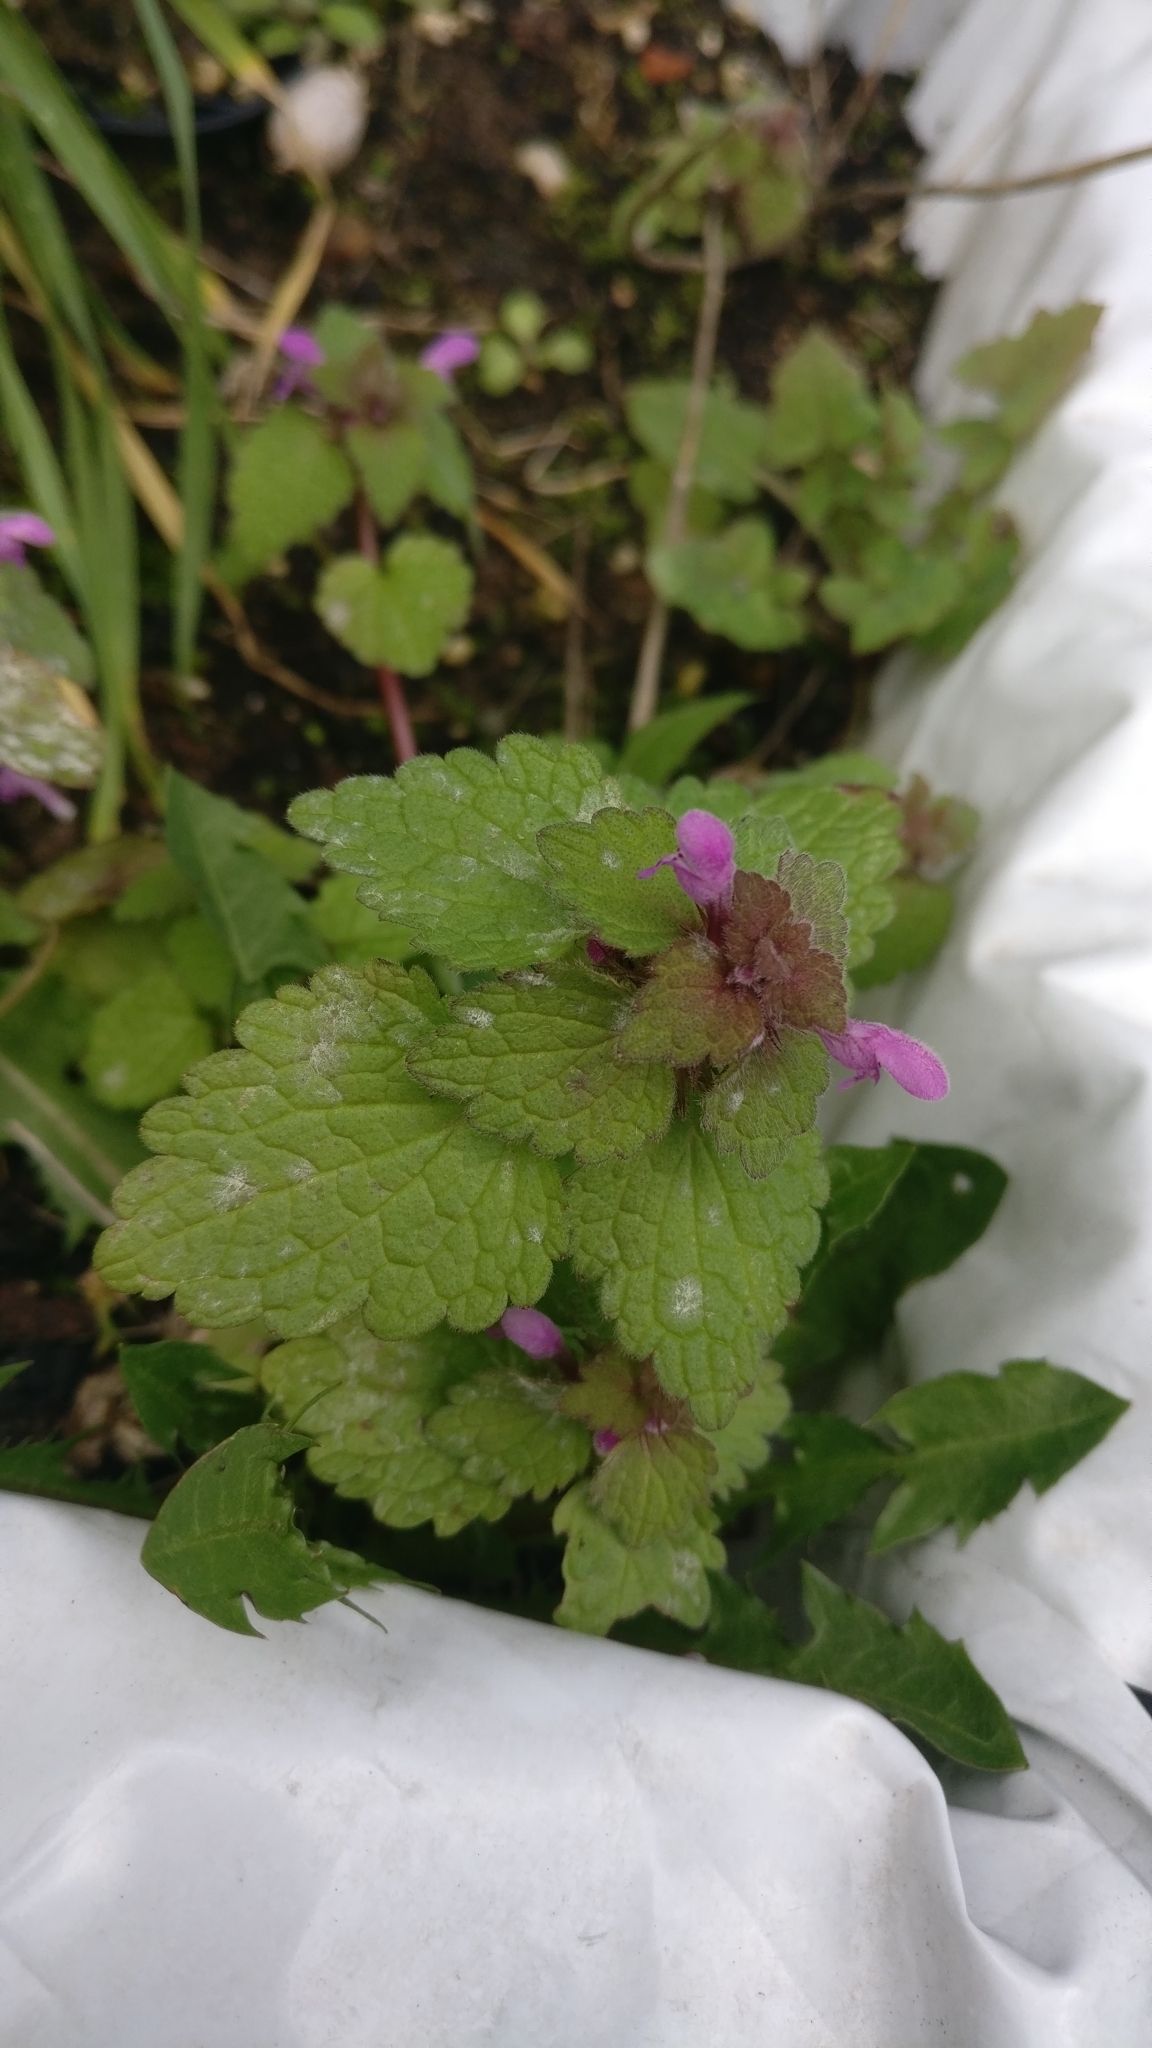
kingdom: Plantae
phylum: Tracheophyta
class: Magnoliopsida
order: Lamiales
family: Lamiaceae
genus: Lamium
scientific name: Lamium purpureum
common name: Red dead-nettle
